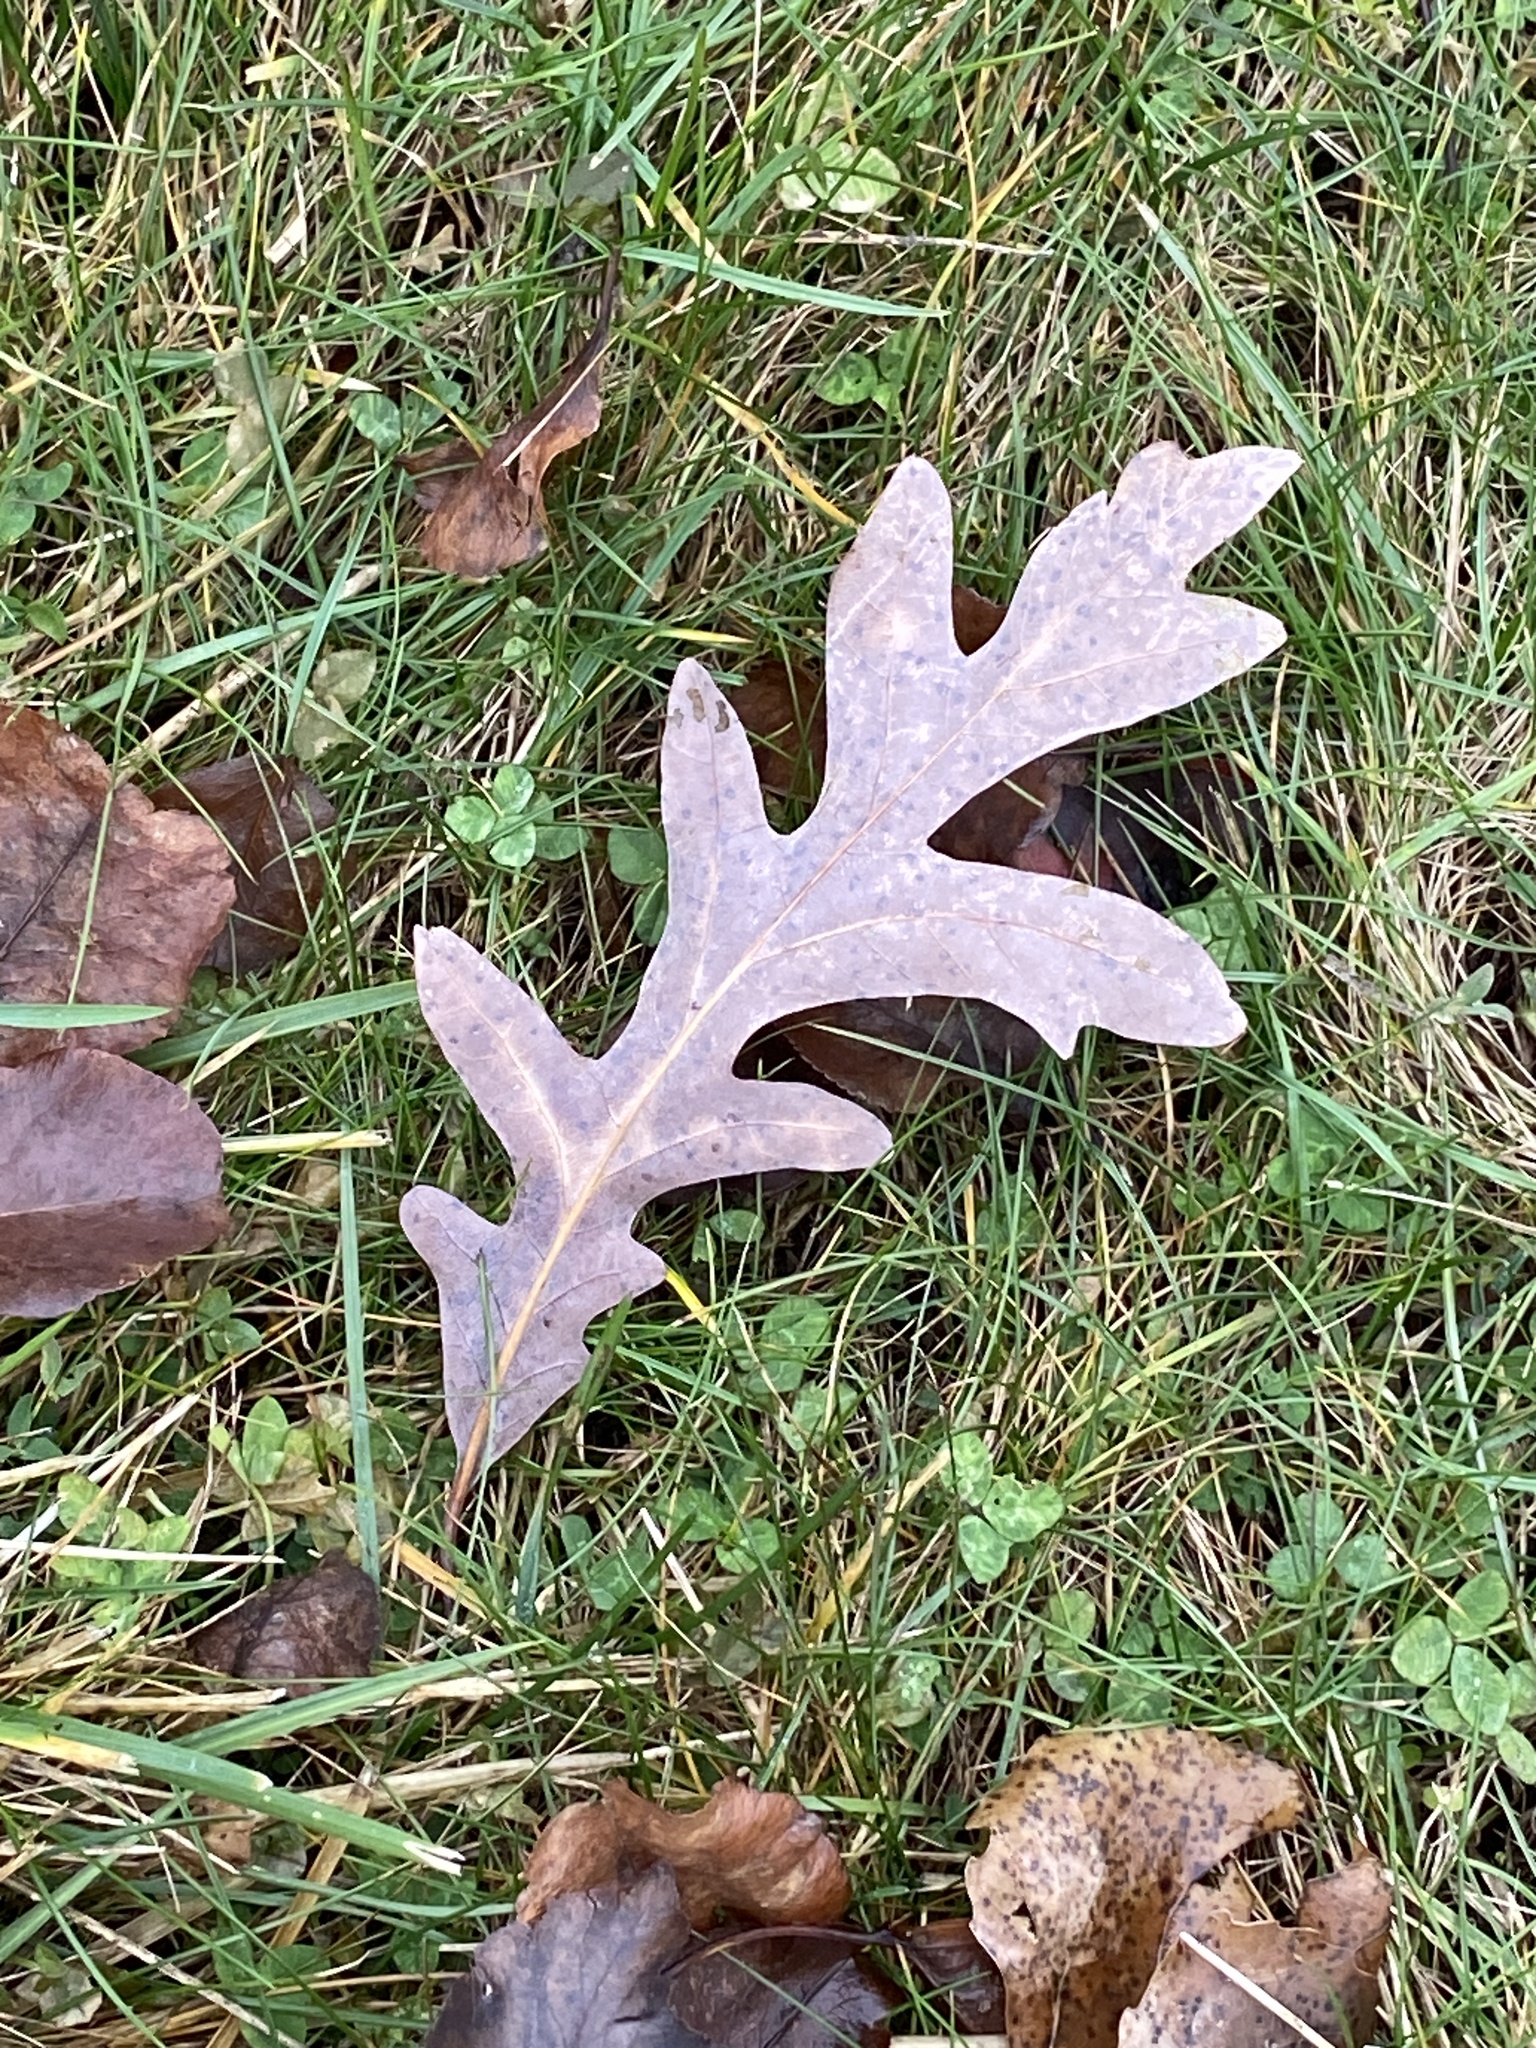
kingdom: Plantae
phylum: Tracheophyta
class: Magnoliopsida
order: Fagales
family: Fagaceae
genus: Quercus
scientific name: Quercus alba
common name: White oak
